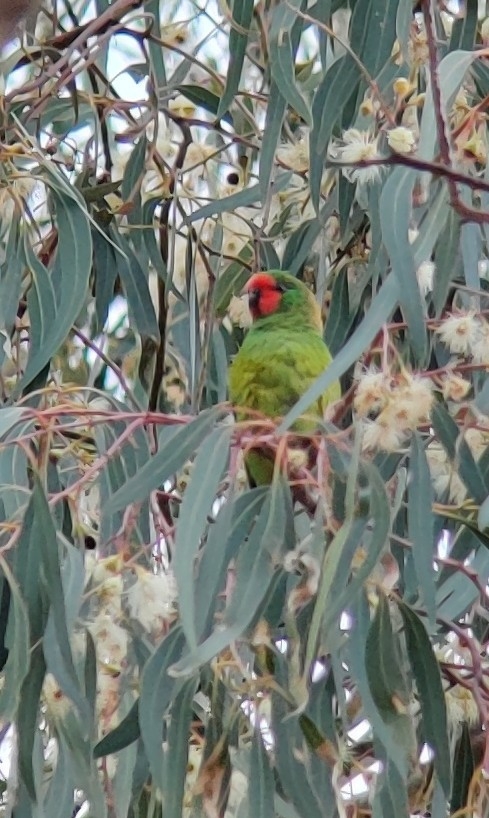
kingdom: Animalia
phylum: Chordata
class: Aves
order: Psittaciformes
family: Psittaculidae
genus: Parvipsitta
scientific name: Parvipsitta pusilla
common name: Little lorikeet
